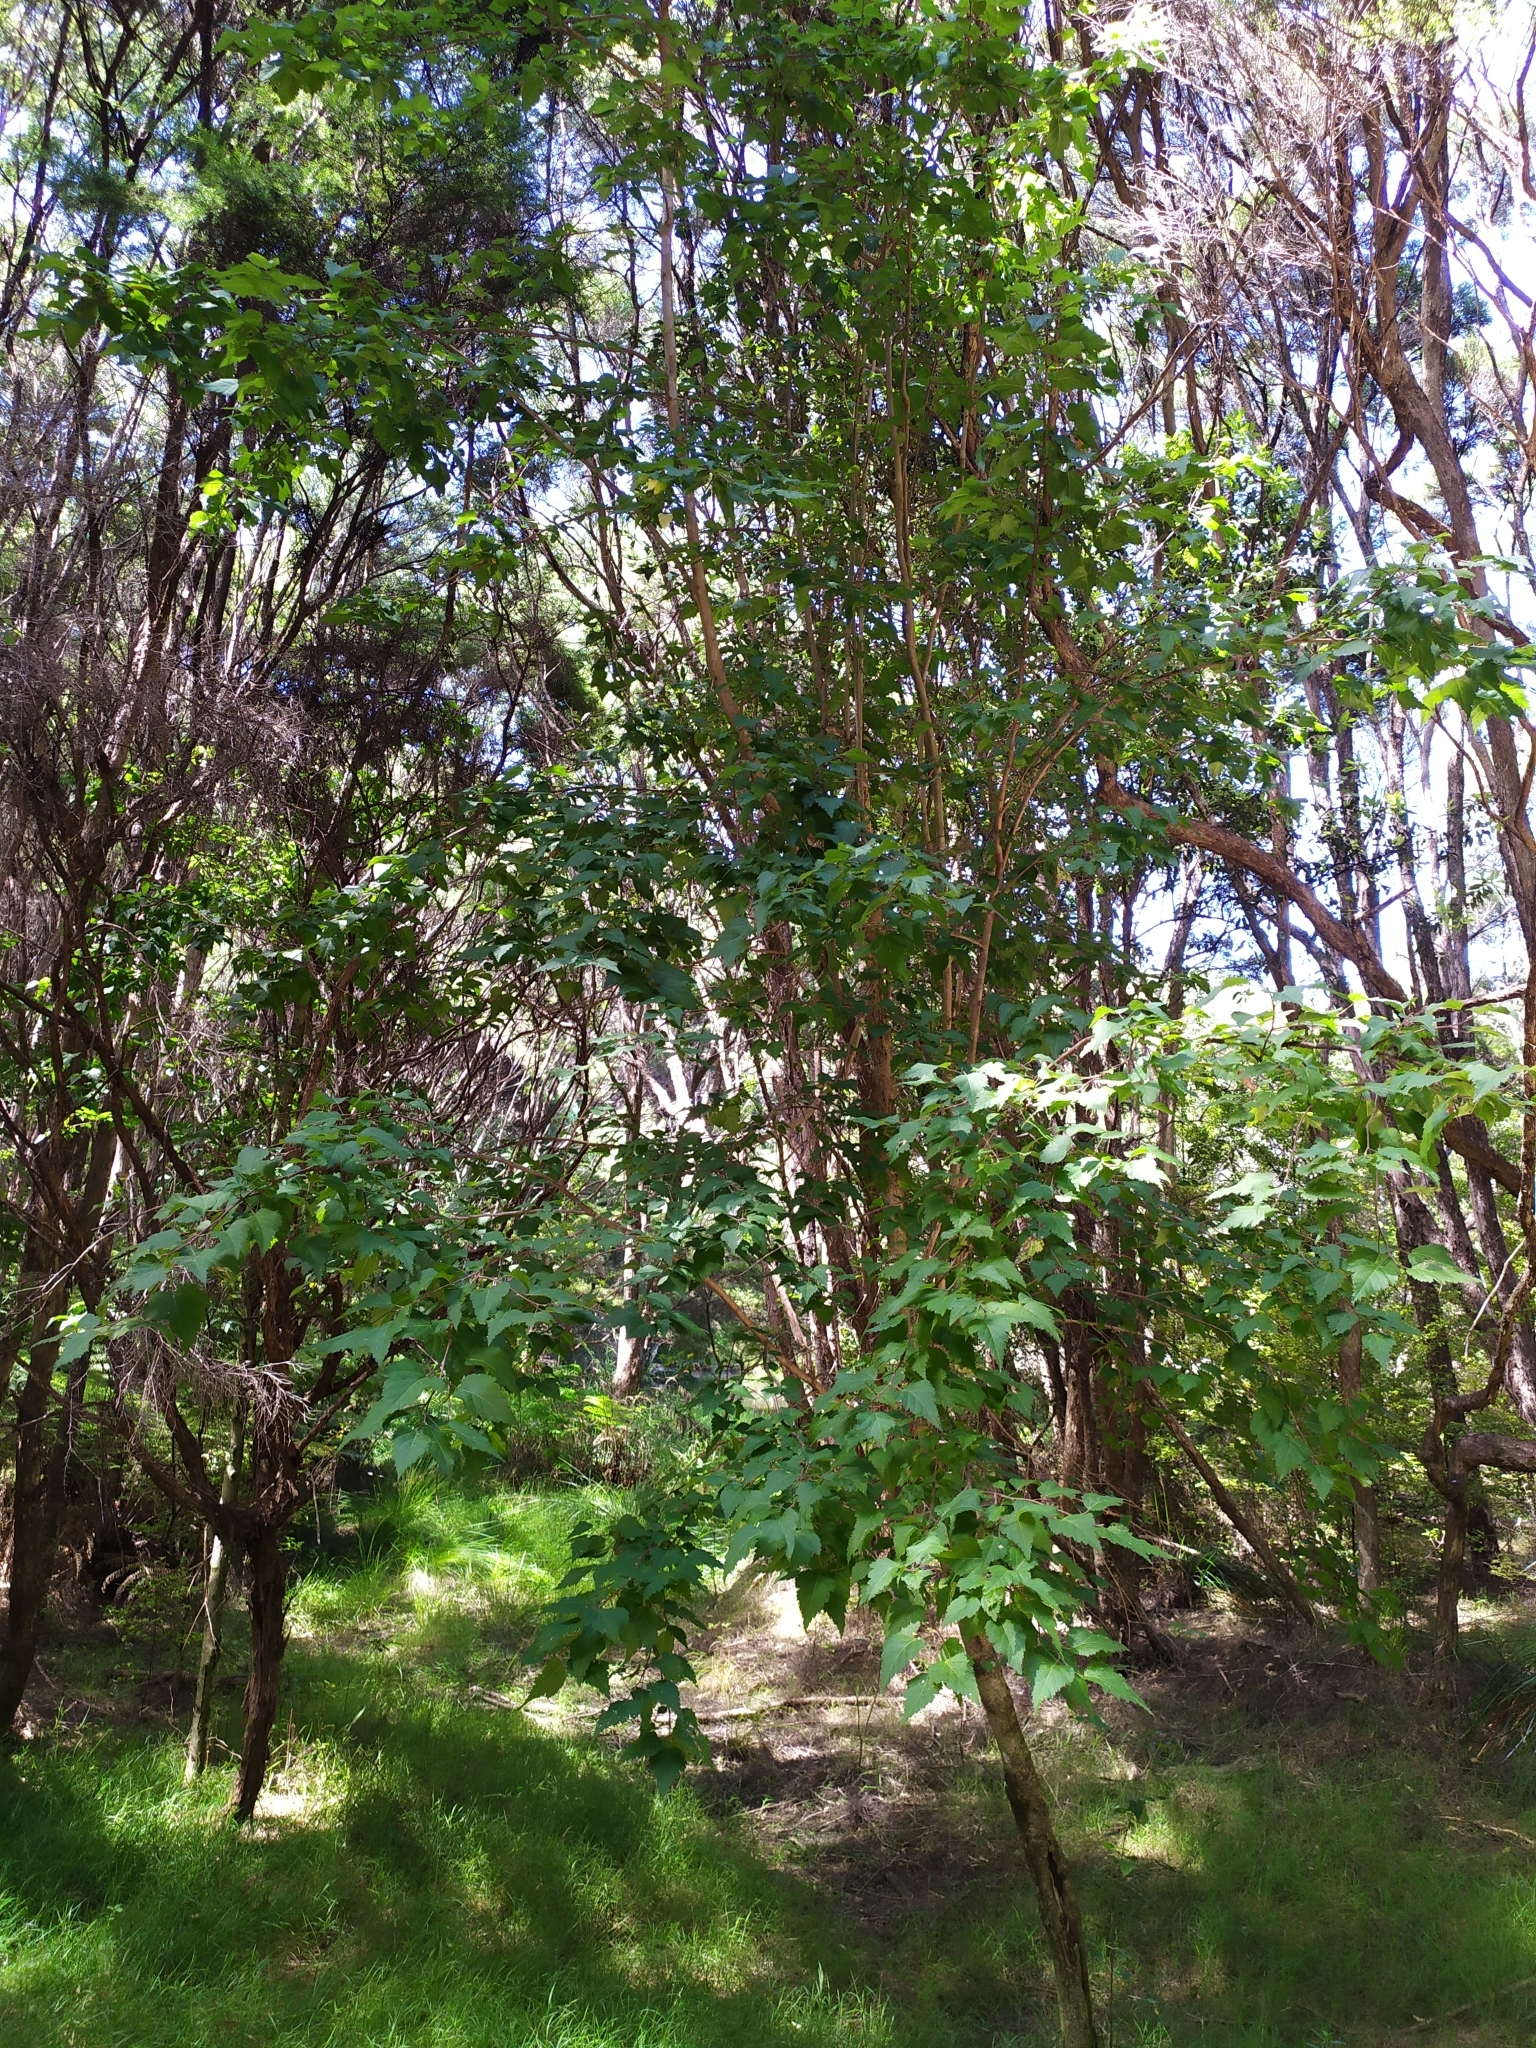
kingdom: Plantae
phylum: Tracheophyta
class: Magnoliopsida
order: Malvales
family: Malvaceae
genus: Plagianthus
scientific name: Plagianthus regius
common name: Manatu
